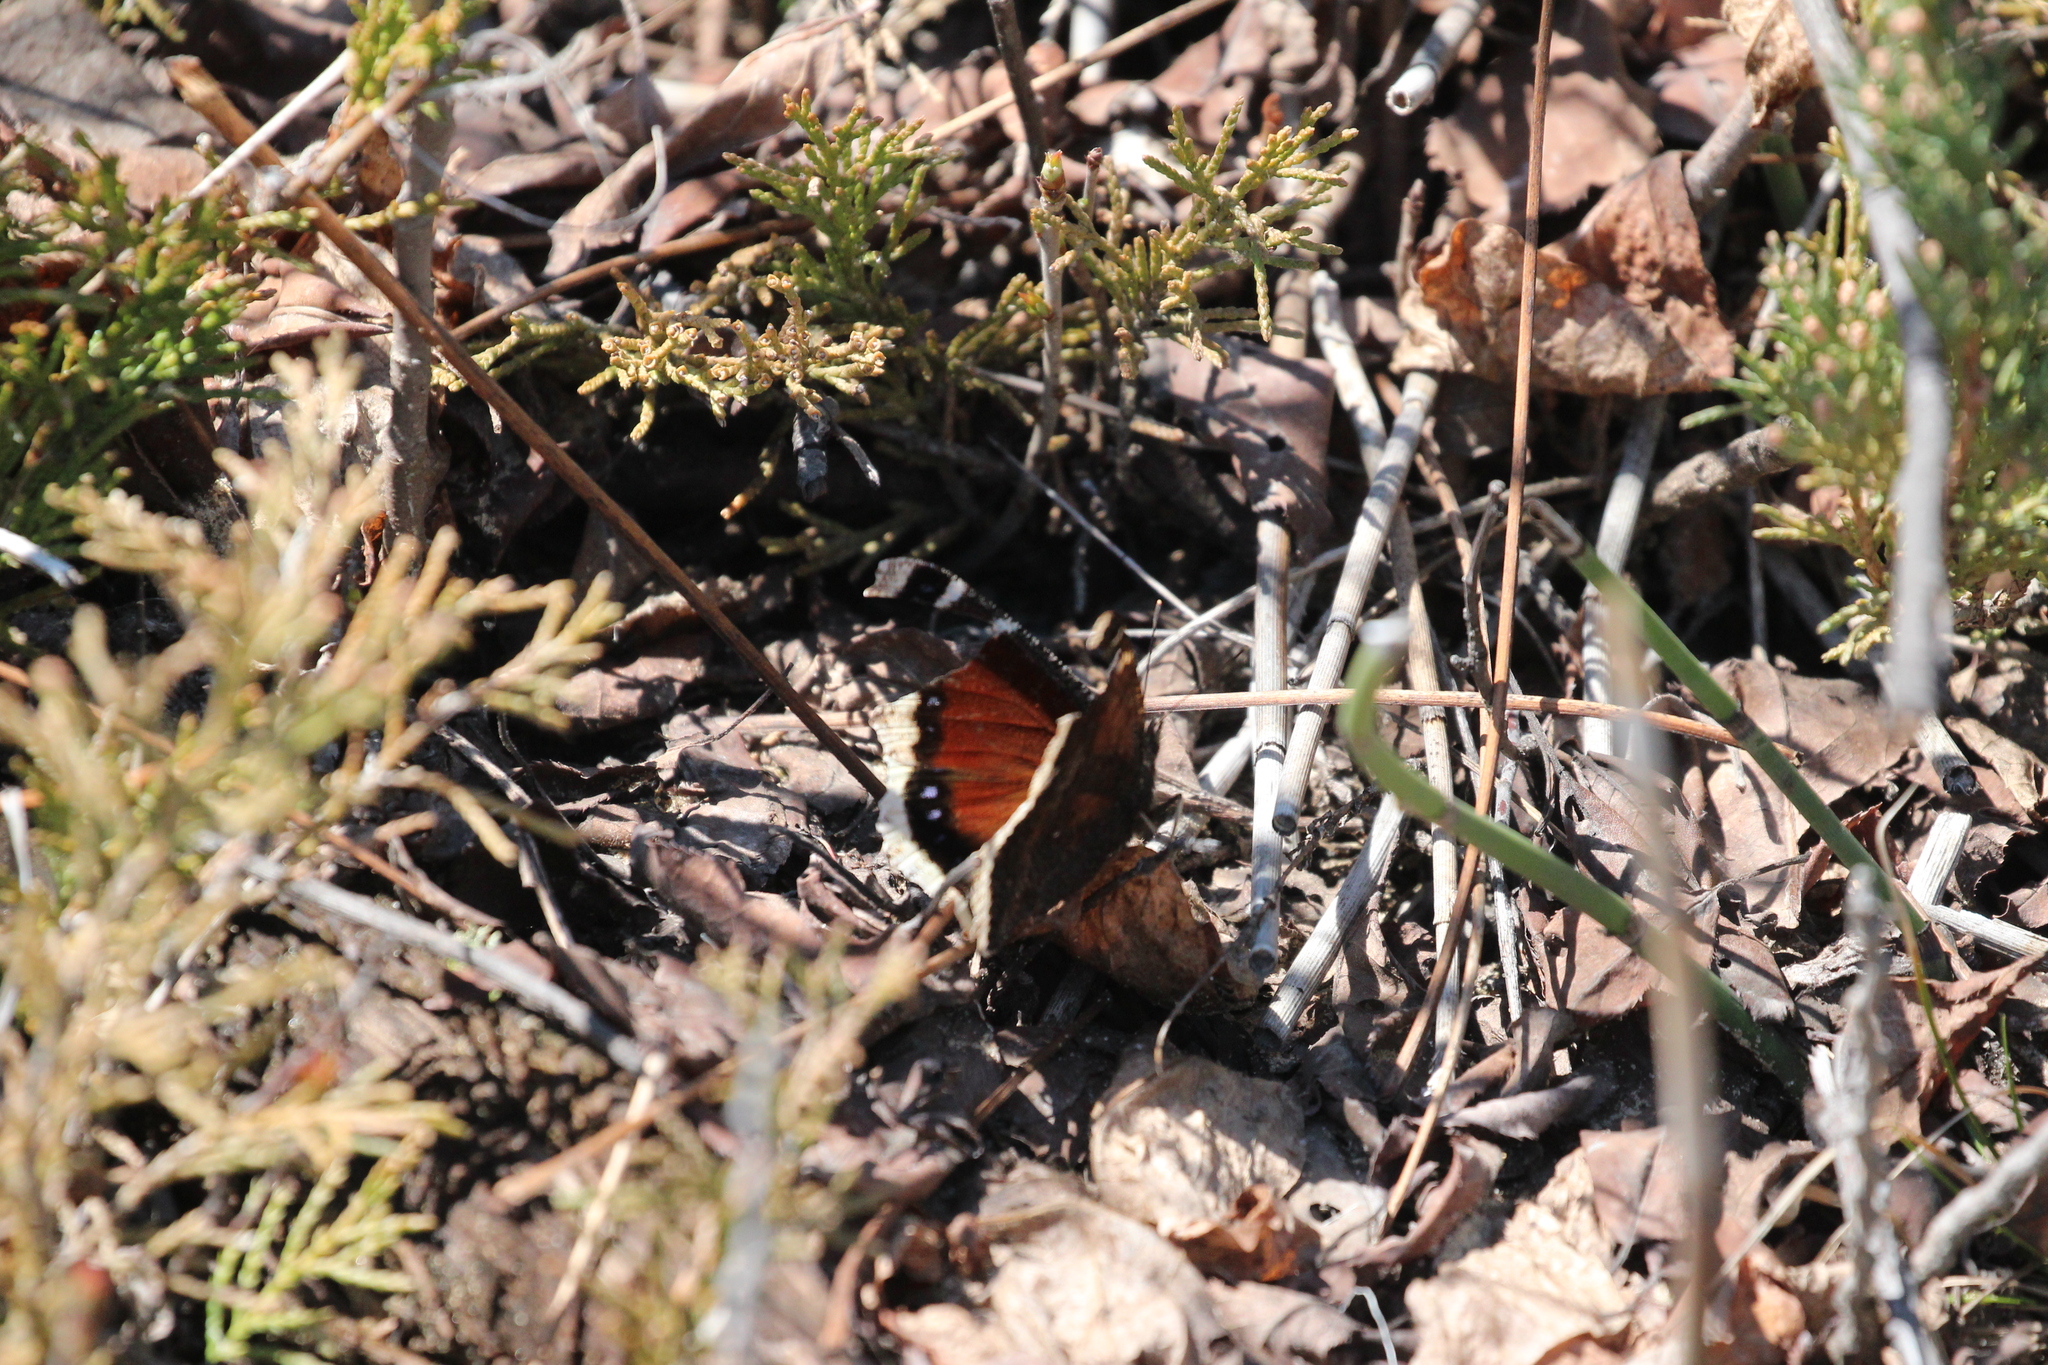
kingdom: Animalia
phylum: Arthropoda
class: Insecta
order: Lepidoptera
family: Nymphalidae
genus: Nymphalis
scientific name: Nymphalis antiopa
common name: Camberwell beauty
